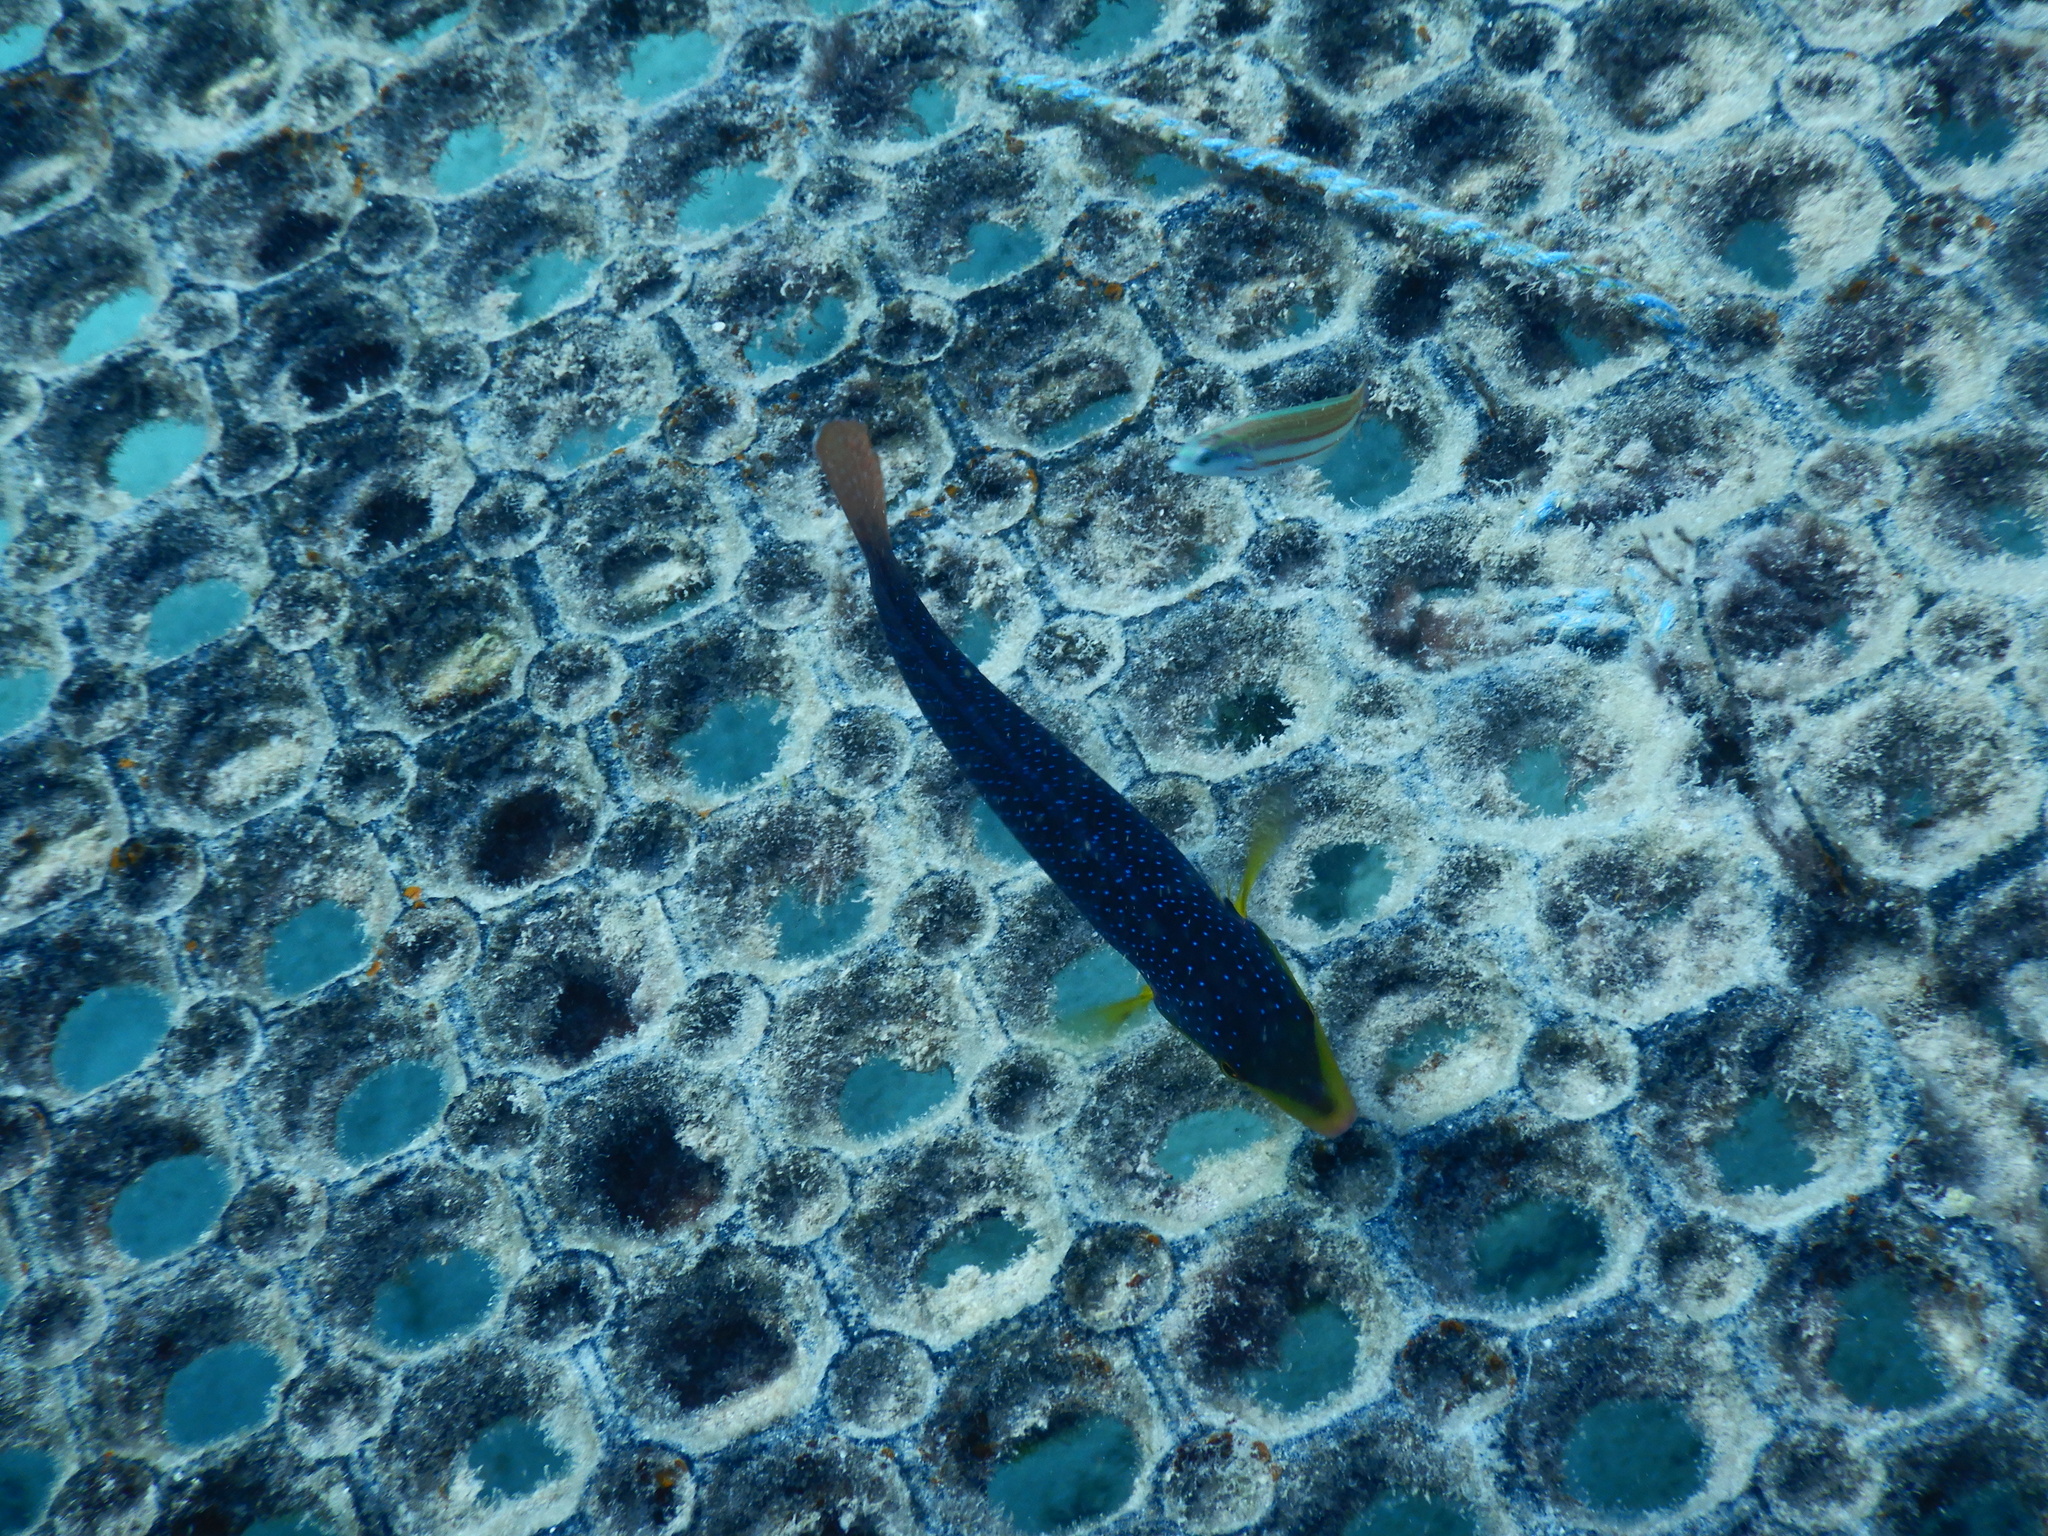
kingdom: Animalia
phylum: Chordata
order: Perciformes
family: Labridae
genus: Anampses
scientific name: Anampses twistii
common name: Yellowbreasted wrasse
